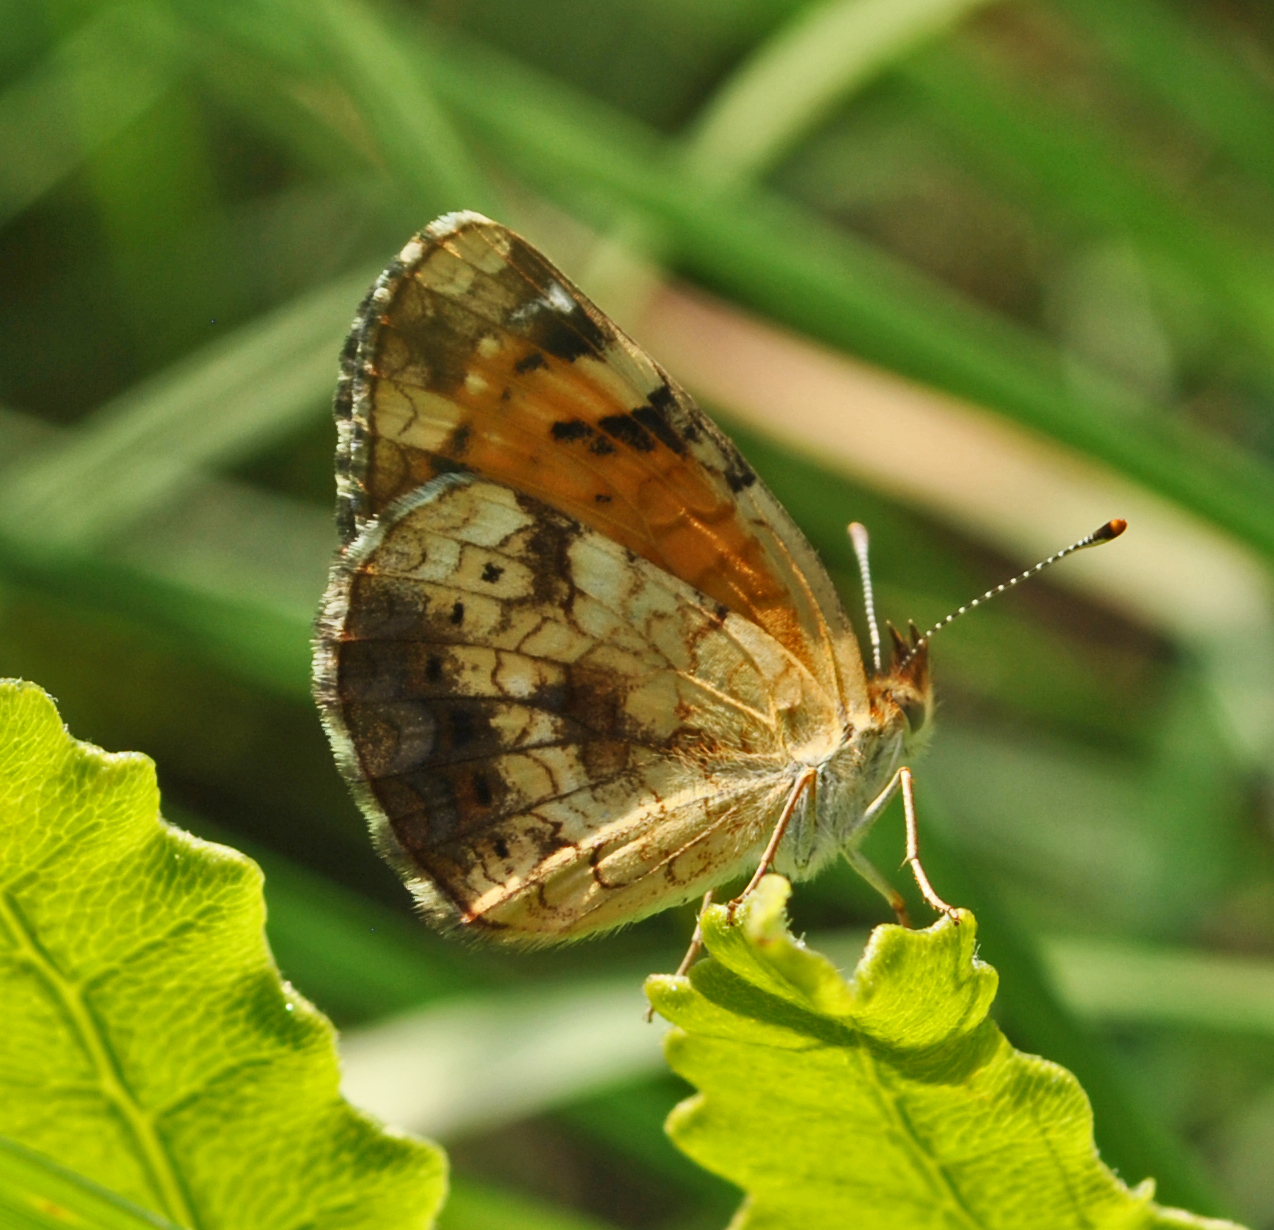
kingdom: Animalia
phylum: Arthropoda
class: Insecta
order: Lepidoptera
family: Nymphalidae
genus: Phyciodes
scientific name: Phyciodes tharos
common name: Pearl crescent
